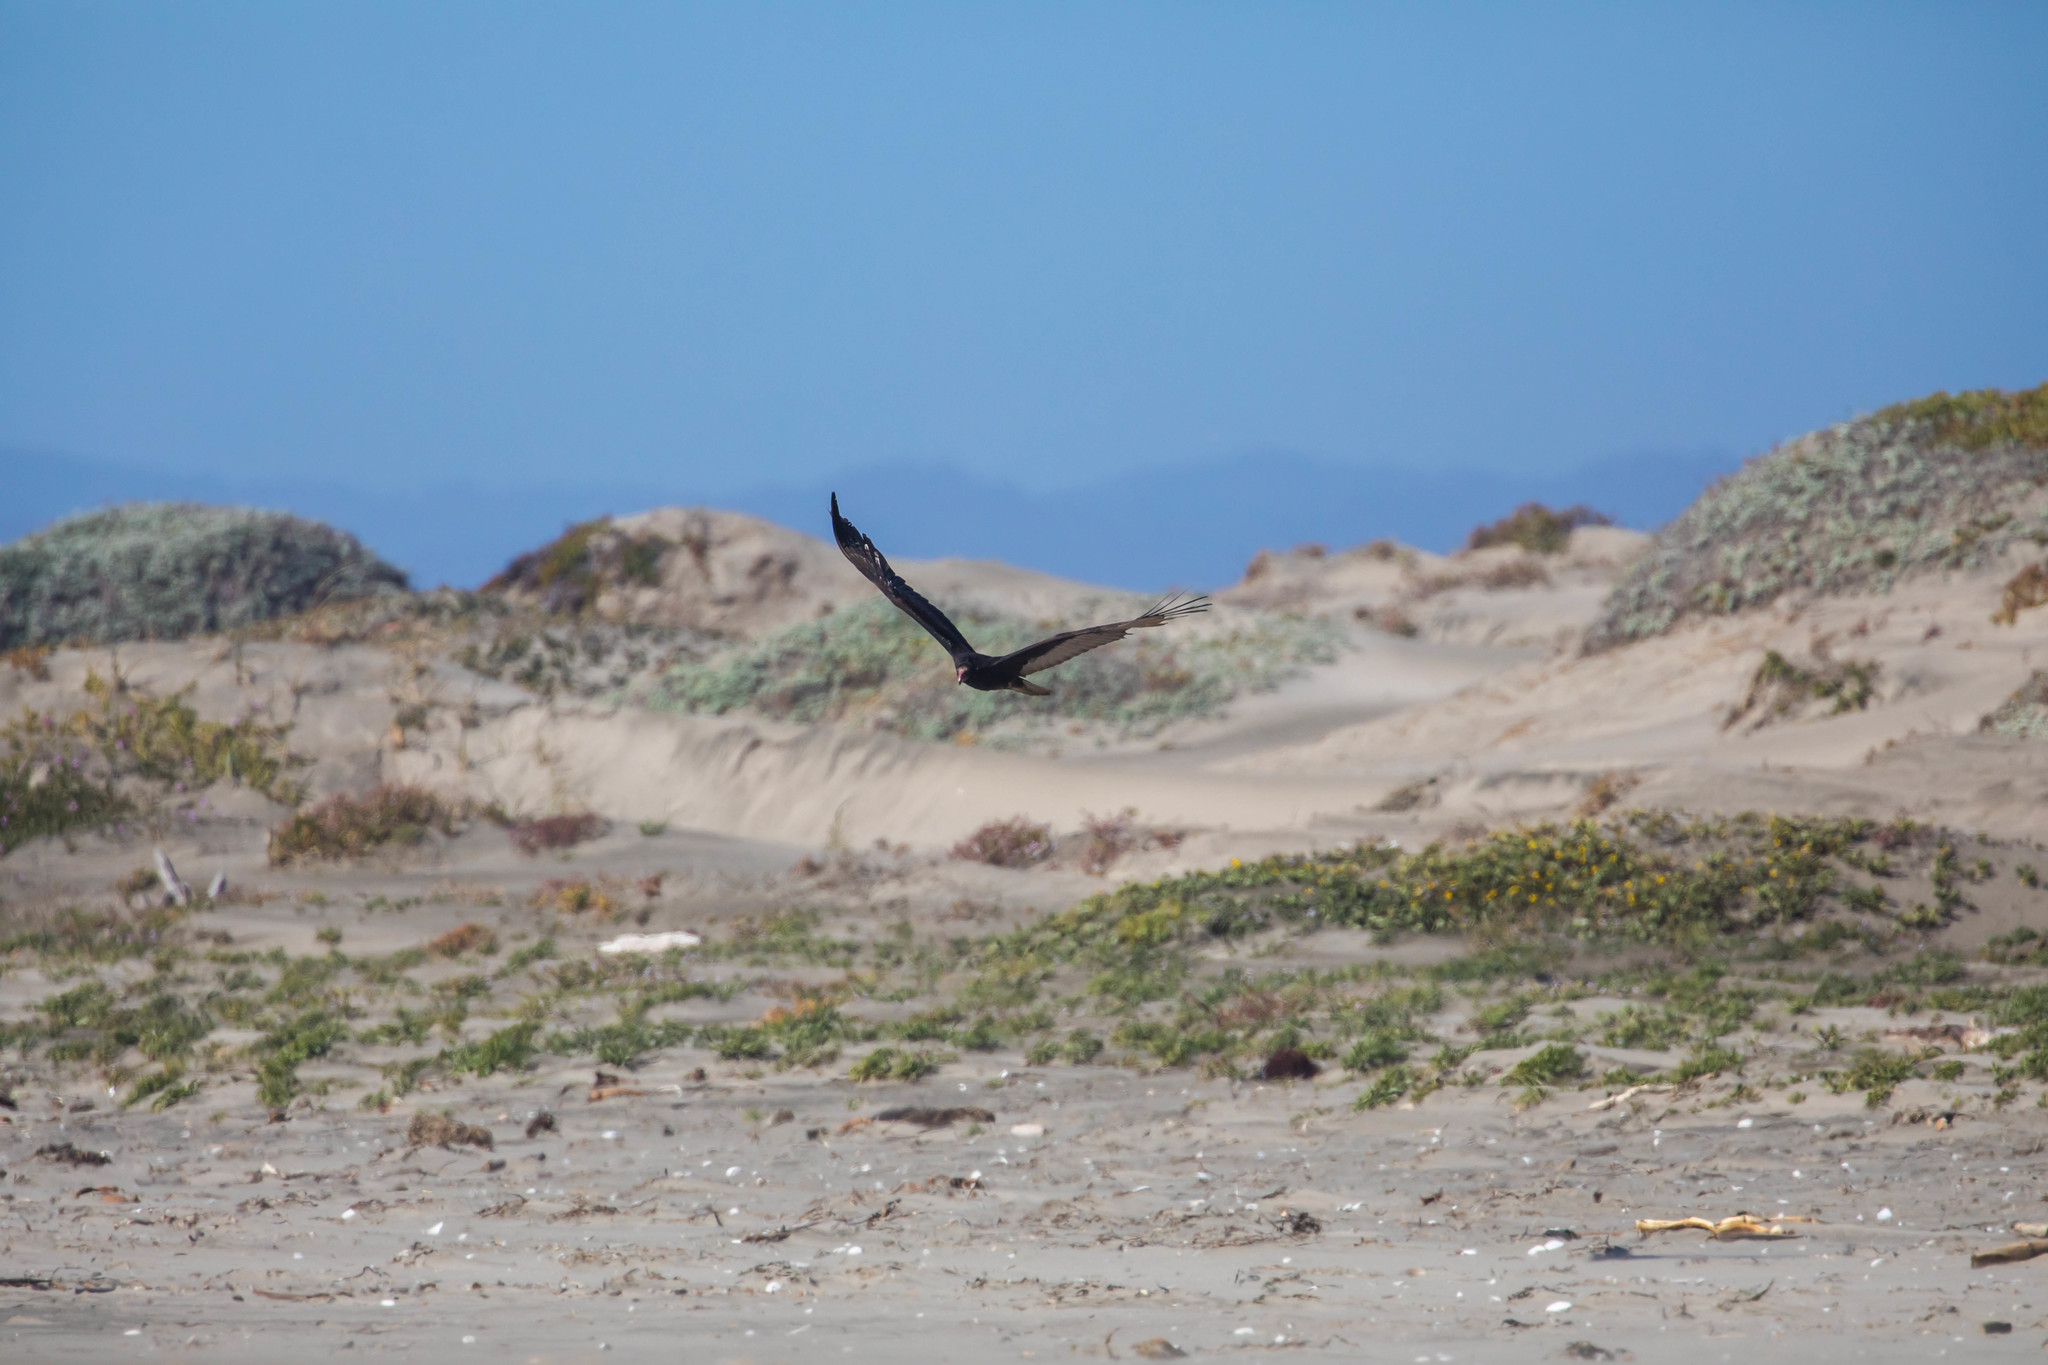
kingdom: Animalia
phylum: Chordata
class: Aves
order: Accipitriformes
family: Cathartidae
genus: Cathartes
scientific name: Cathartes aura
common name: Turkey vulture
